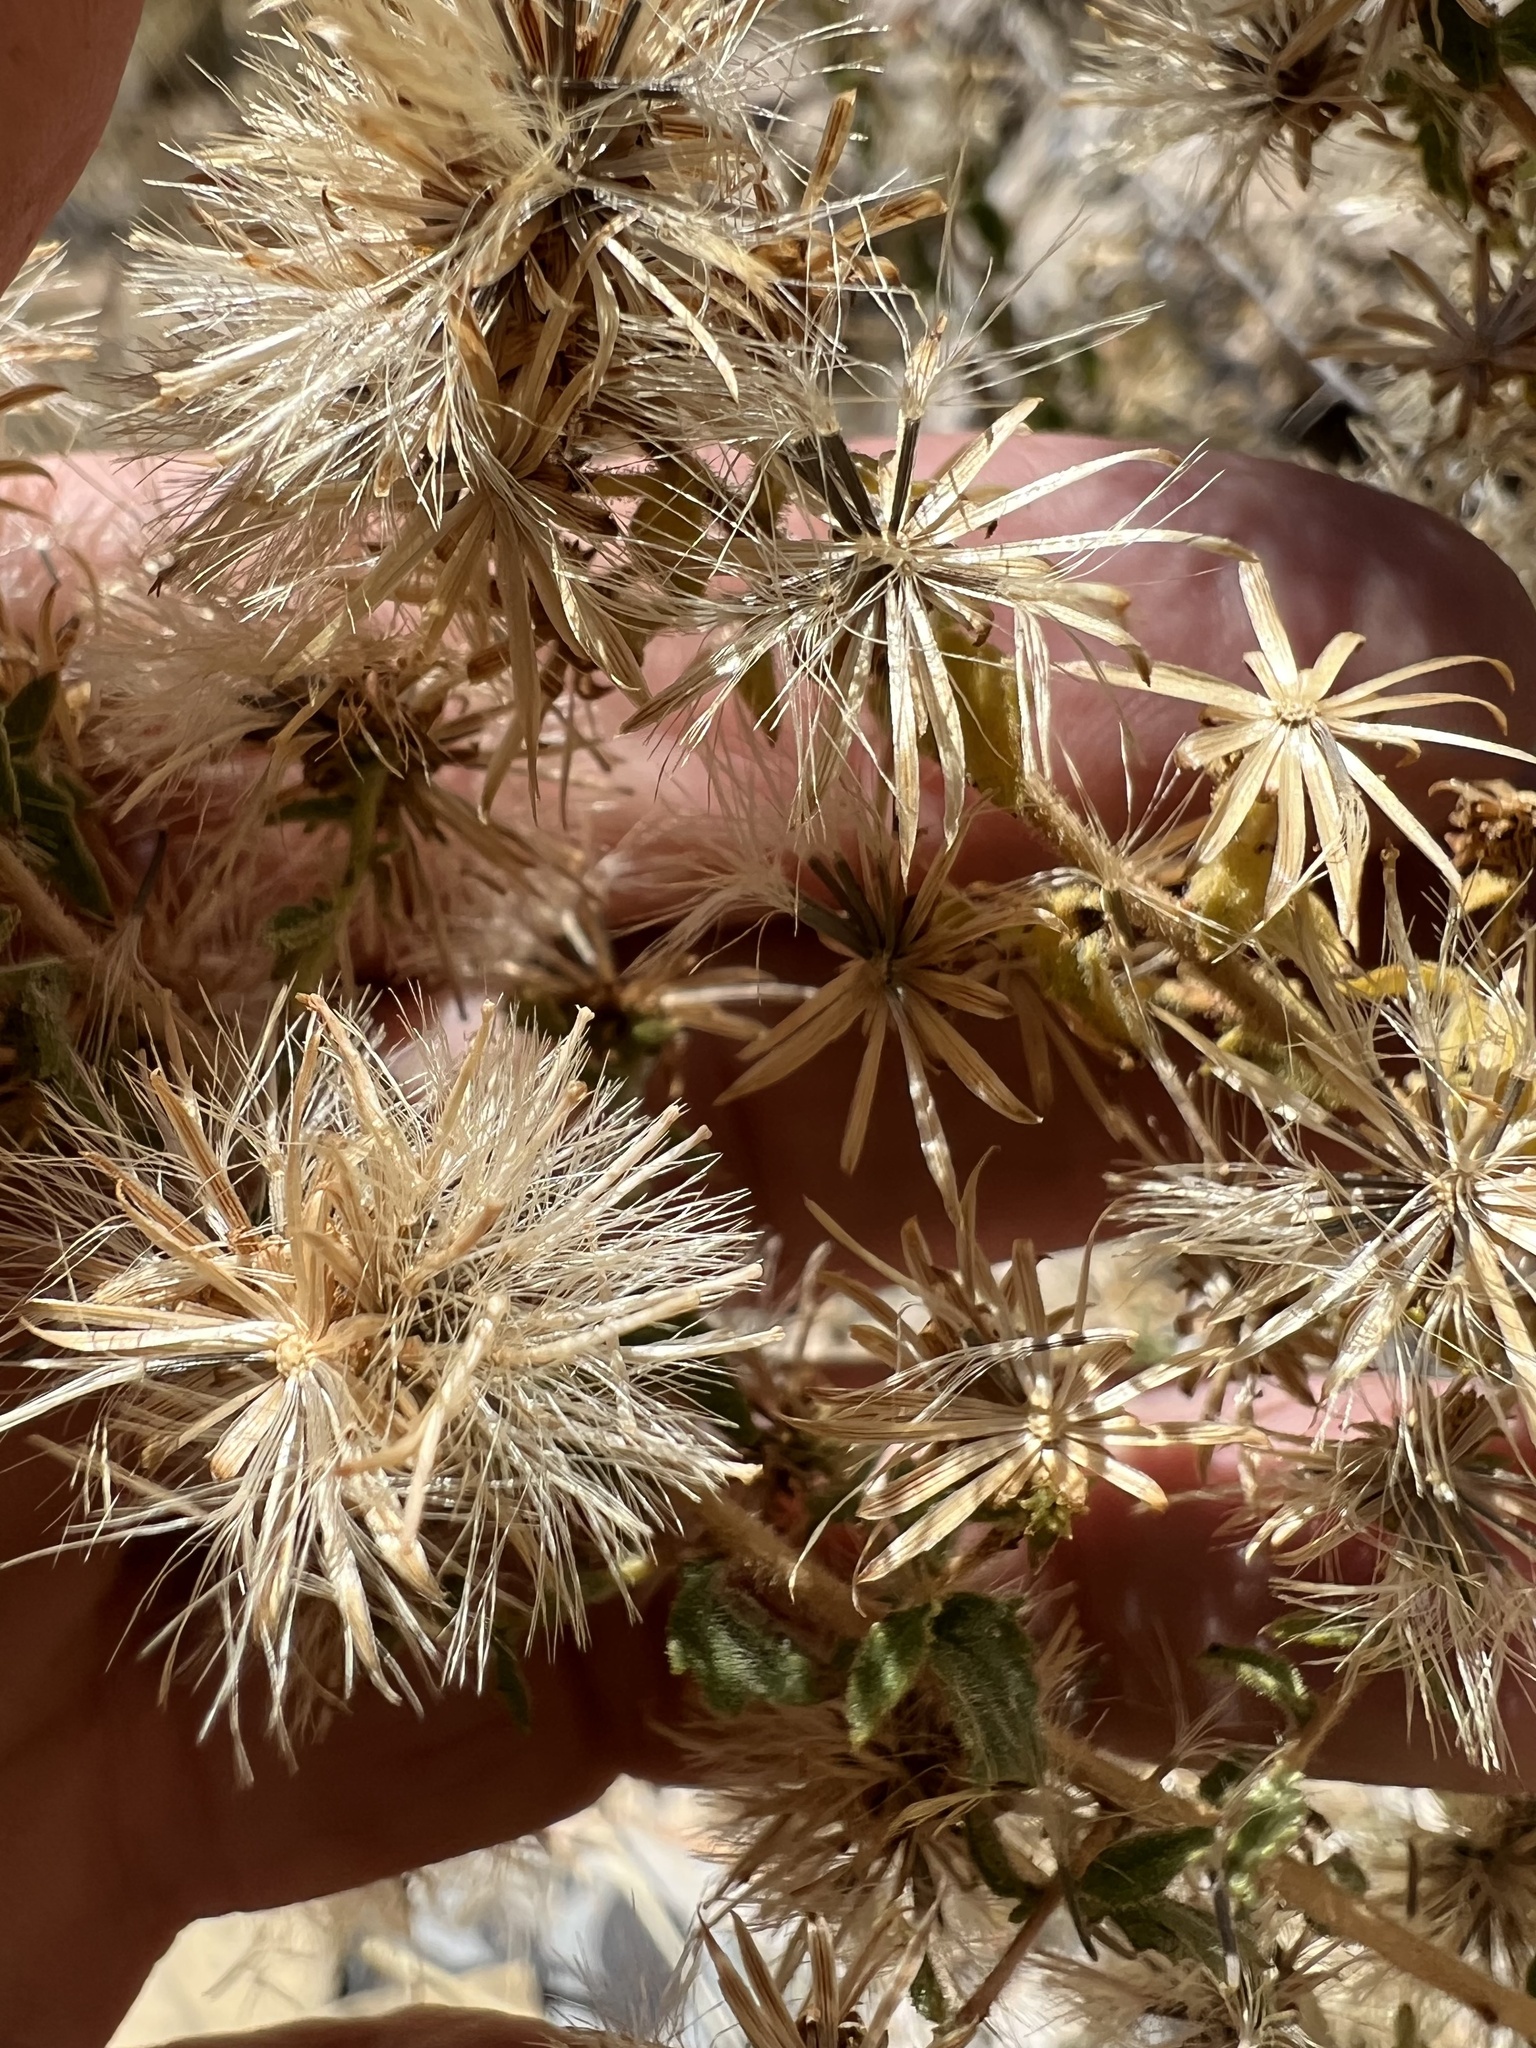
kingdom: Plantae
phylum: Tracheophyta
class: Magnoliopsida
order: Asterales
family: Asteraceae
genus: Brickellia
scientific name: Brickellia microphylla
